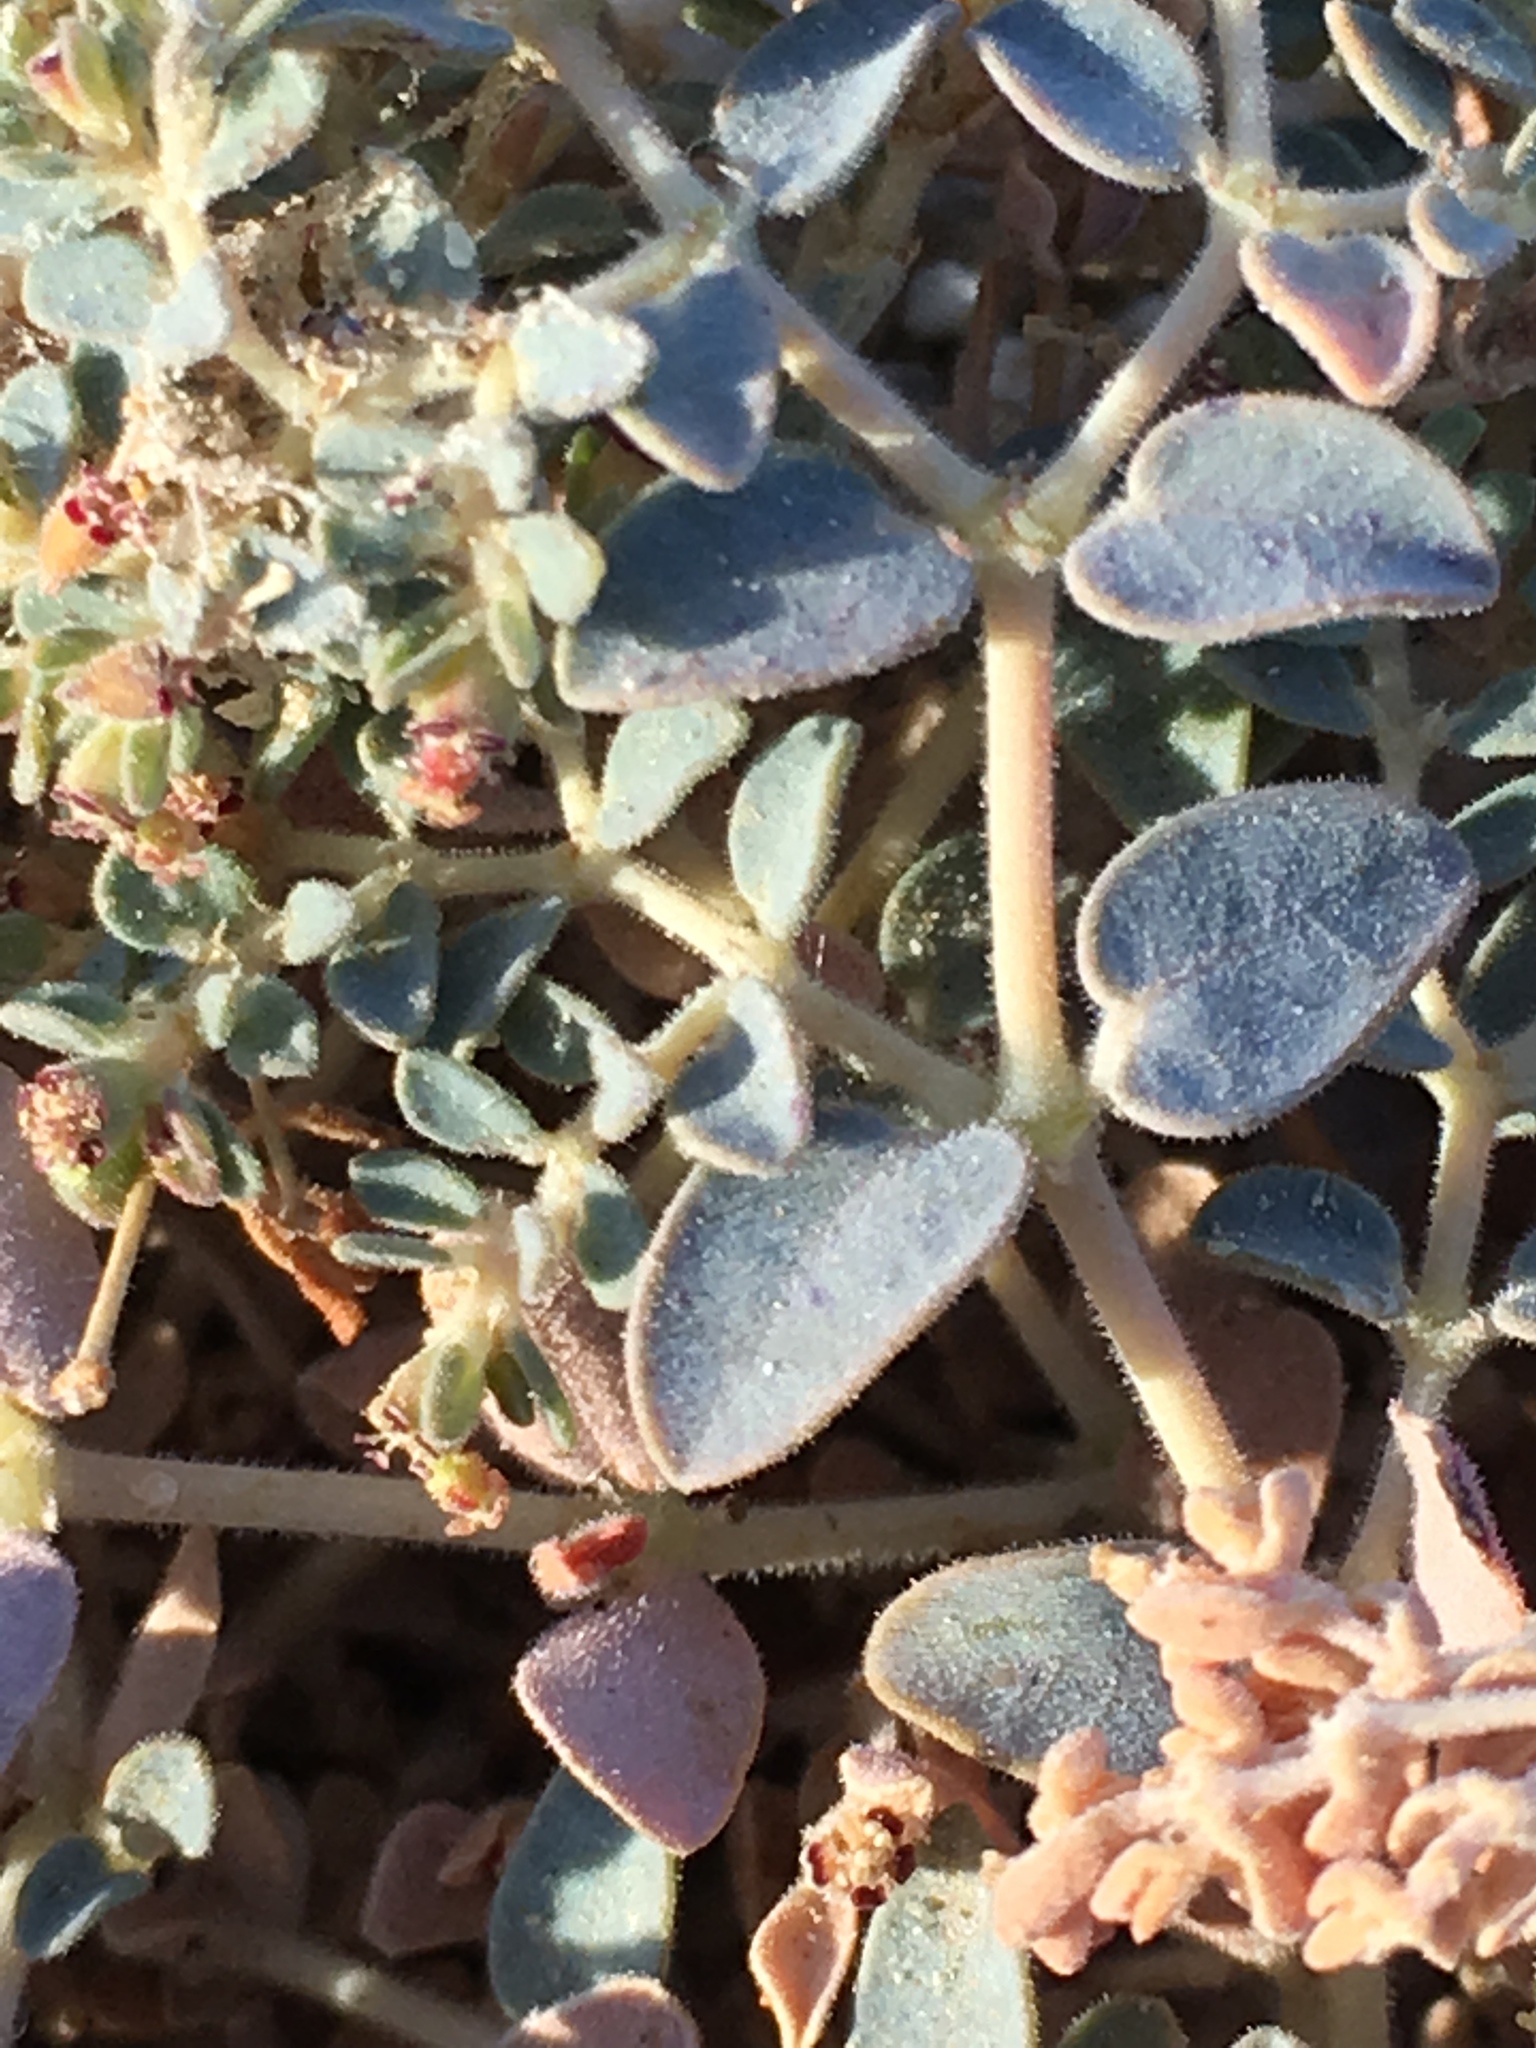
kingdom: Plantae
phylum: Tracheophyta
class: Magnoliopsida
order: Malpighiales
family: Euphorbiaceae
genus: Euphorbia
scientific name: Euphorbia polycarpa
